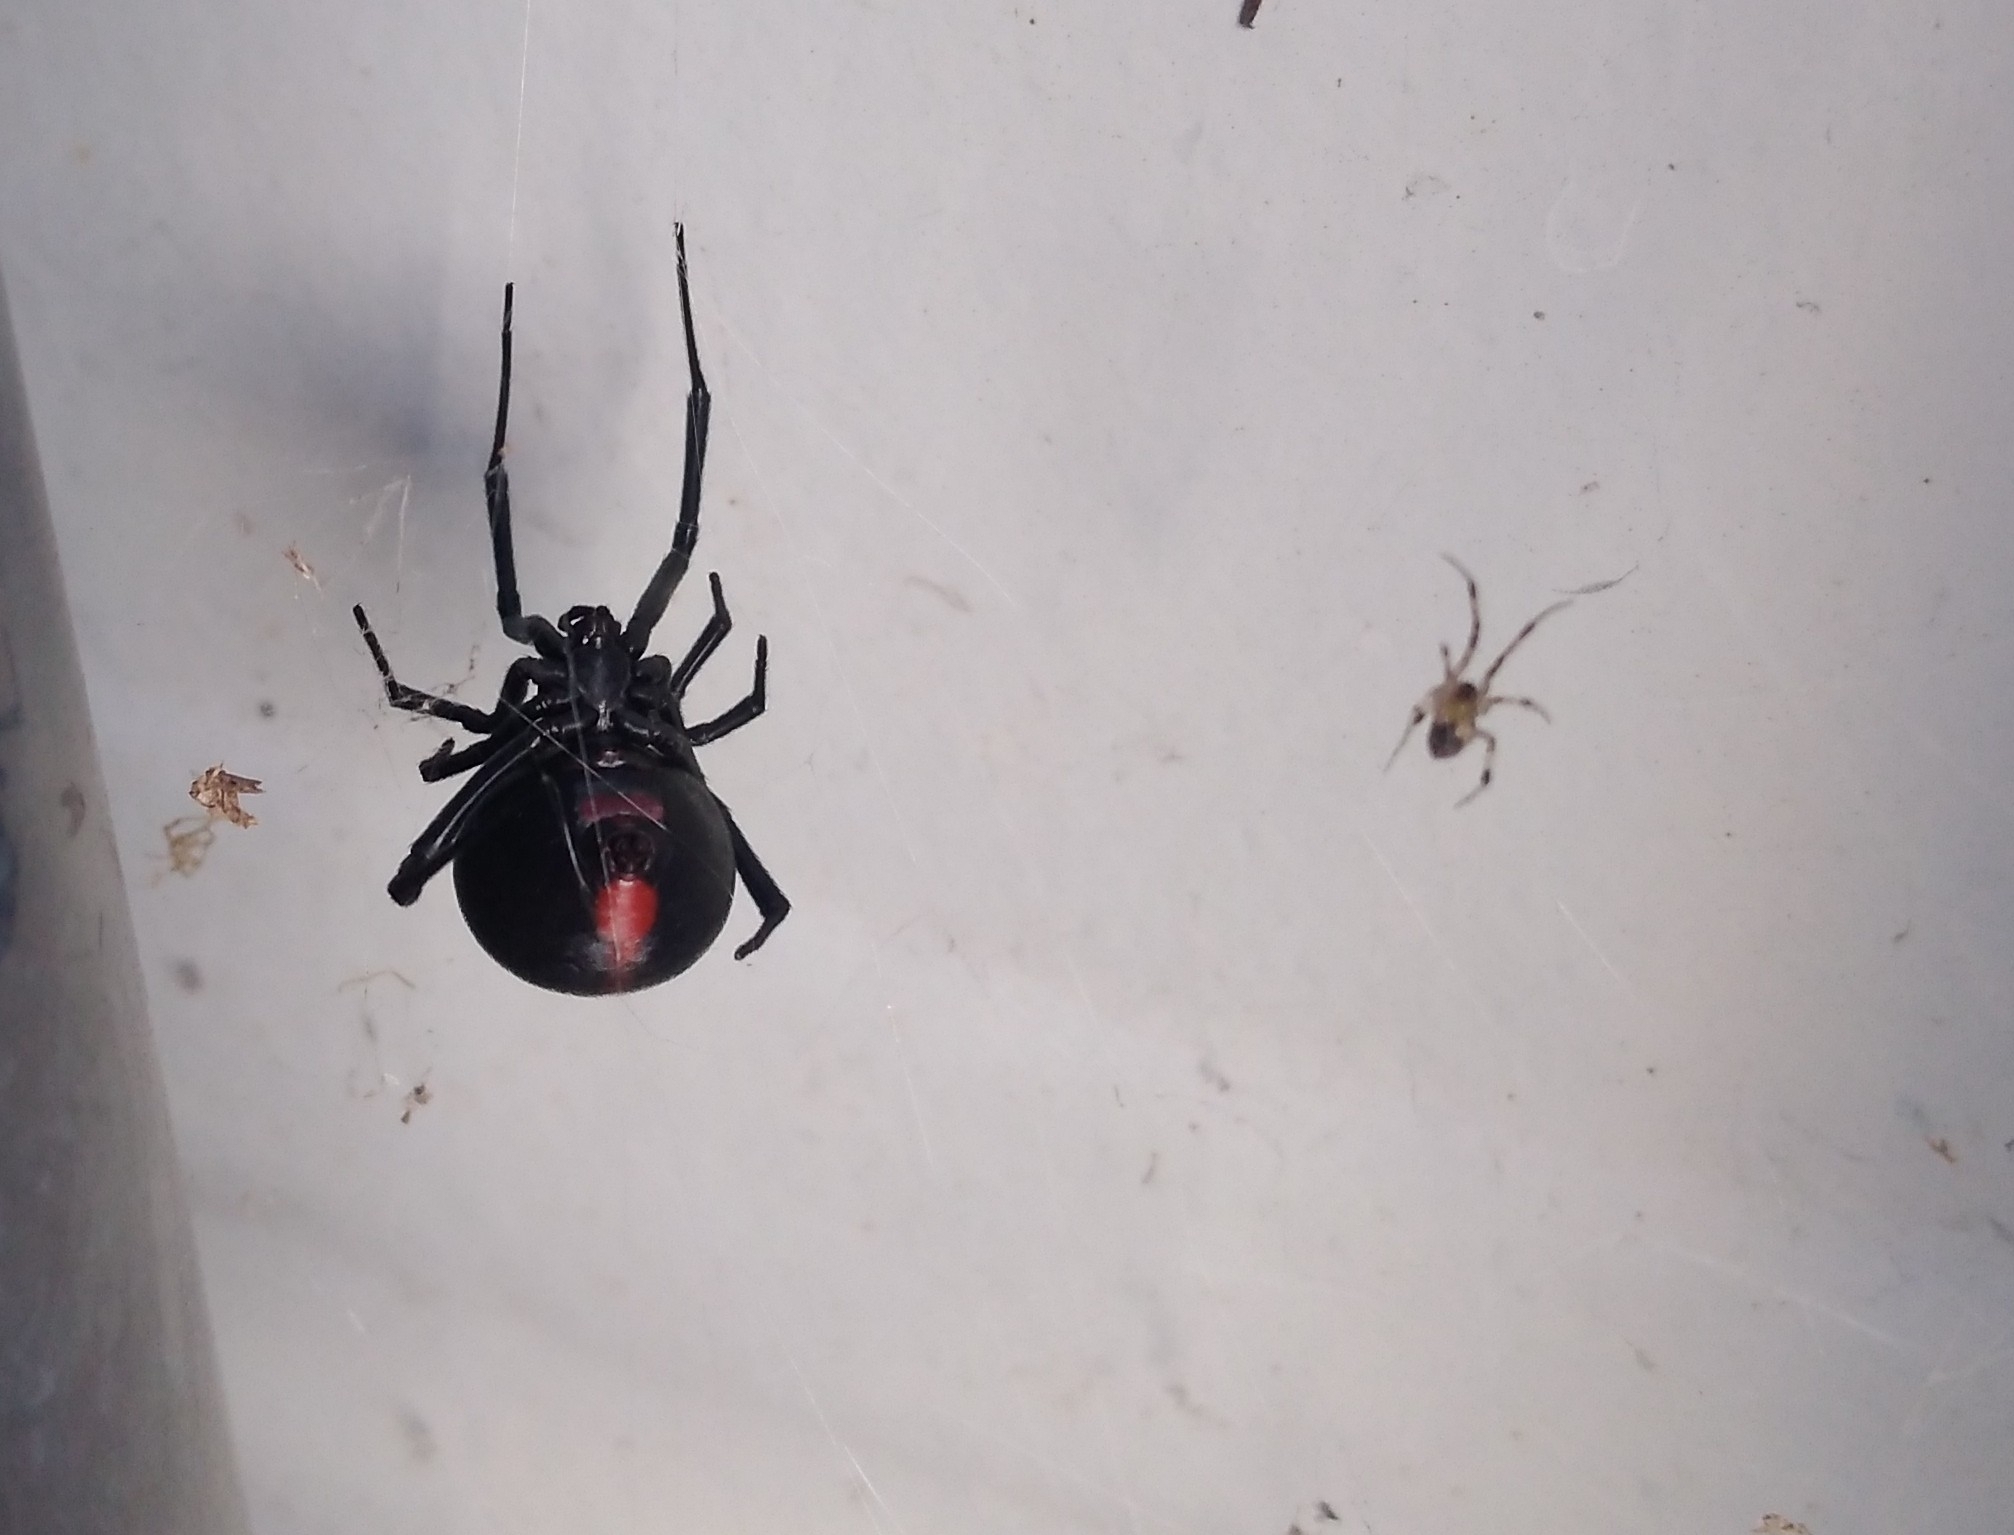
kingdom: Animalia
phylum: Arthropoda
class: Arachnida
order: Araneae
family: Theridiidae
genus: Latrodectus
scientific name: Latrodectus mirabilis
